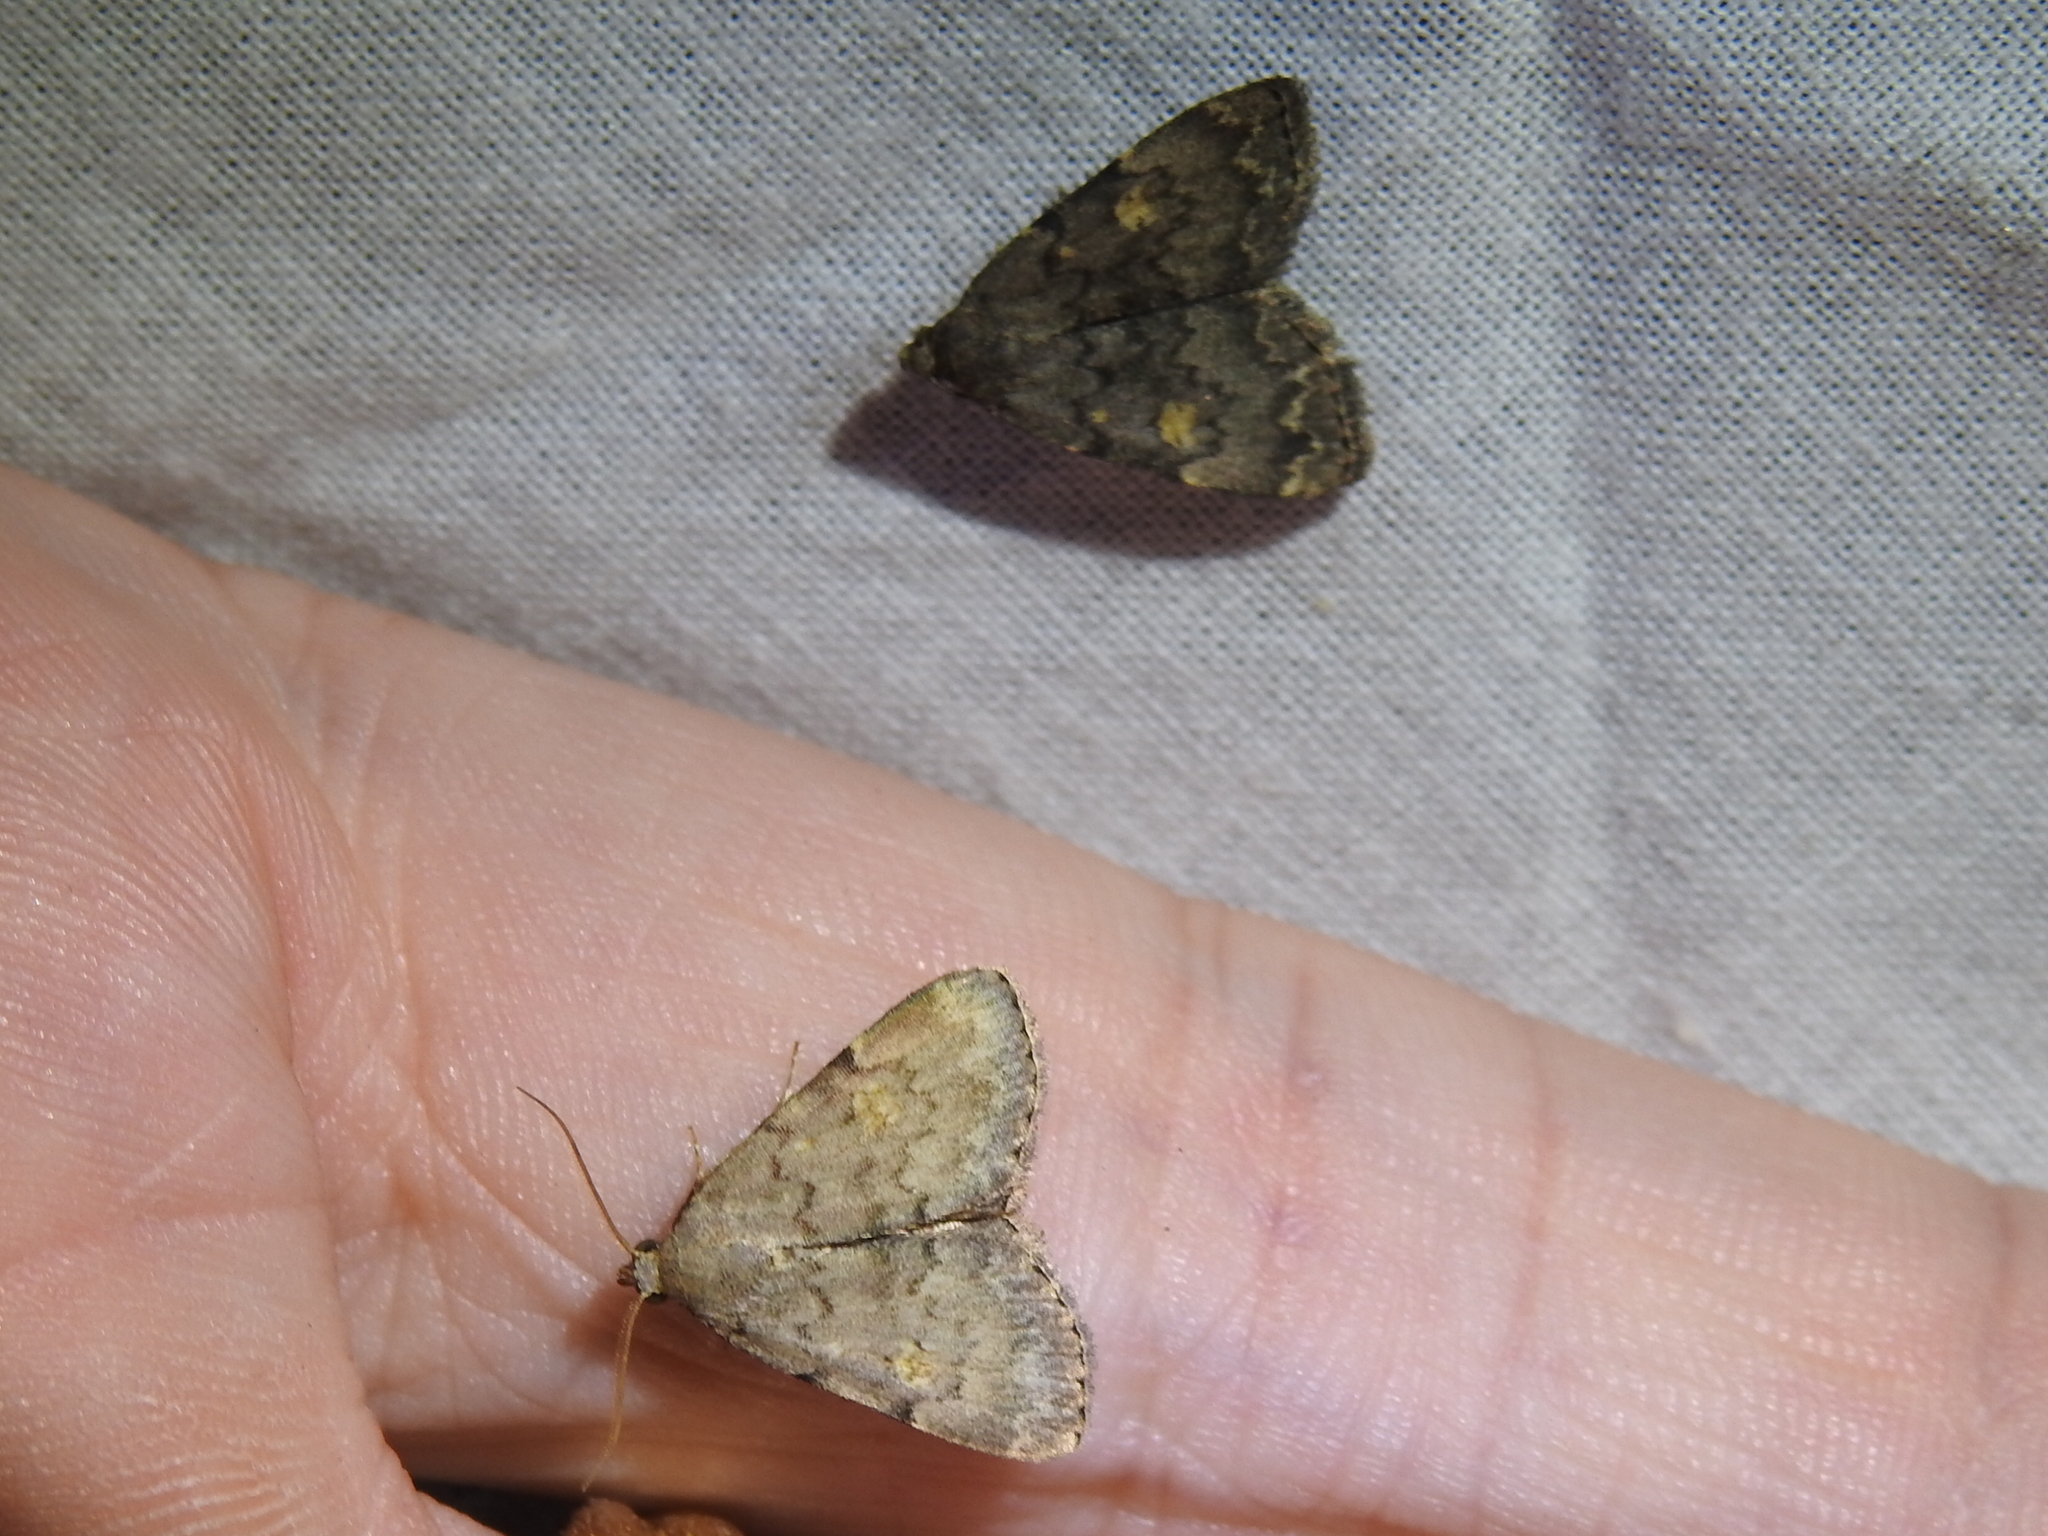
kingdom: Animalia
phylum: Arthropoda
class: Insecta
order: Lepidoptera
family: Erebidae
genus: Idia
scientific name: Idia aemula
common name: Common idia moth
